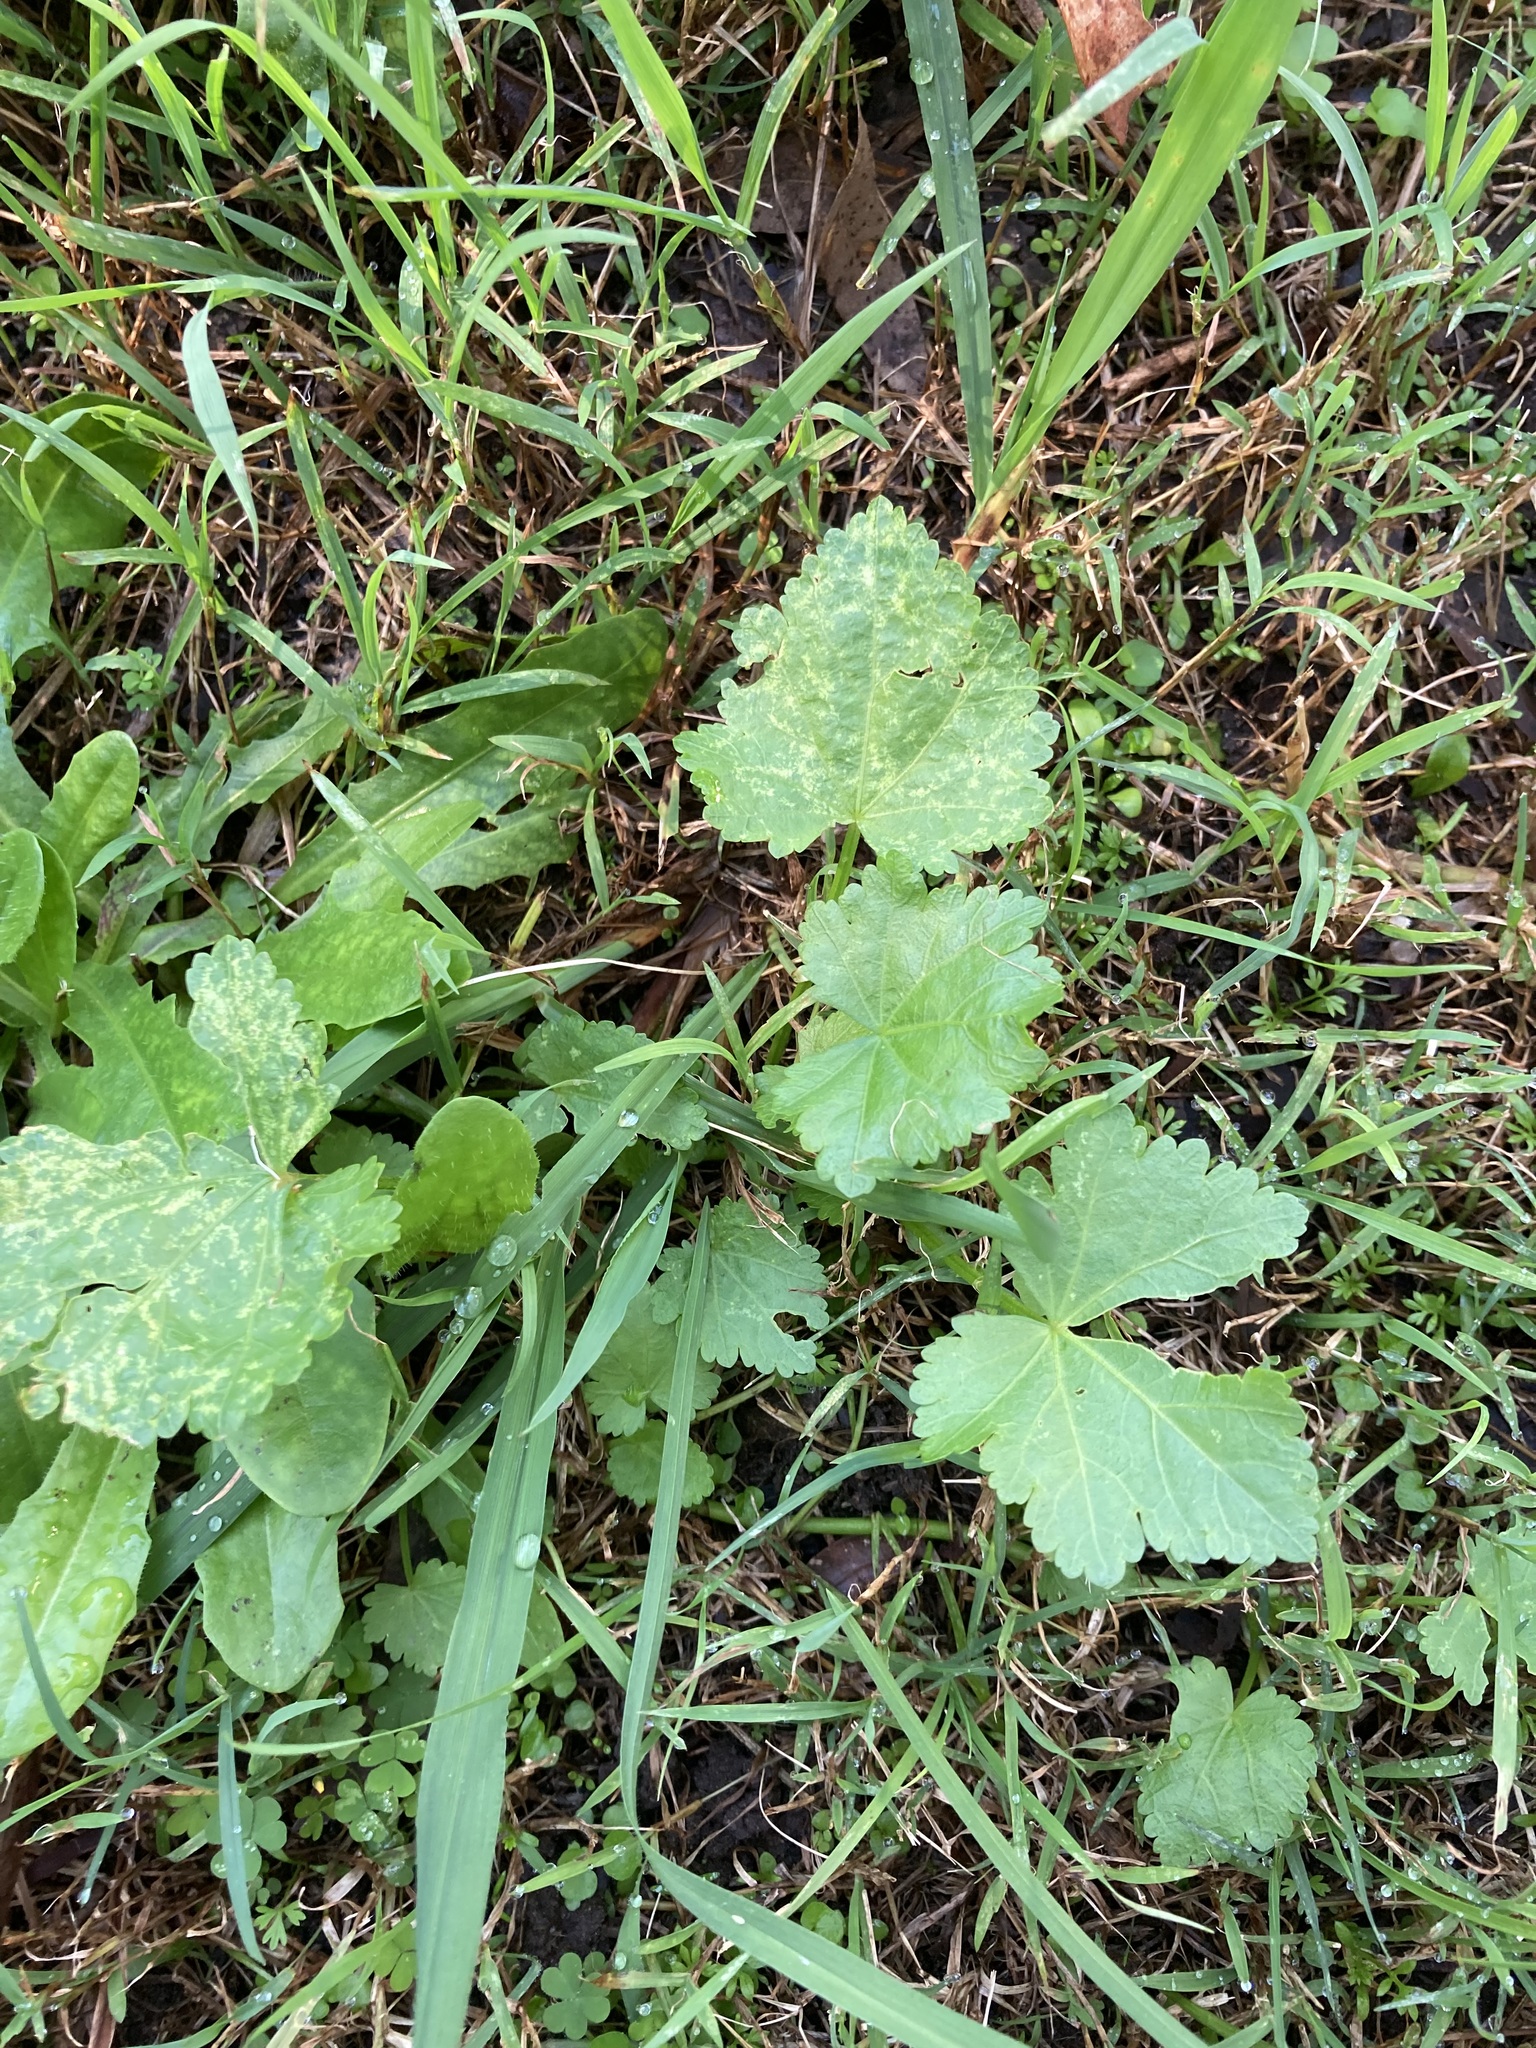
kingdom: Plantae
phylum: Tracheophyta
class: Magnoliopsida
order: Malvales
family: Malvaceae
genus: Modiola
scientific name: Modiola caroliniana
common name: Carolina bristlemallow
